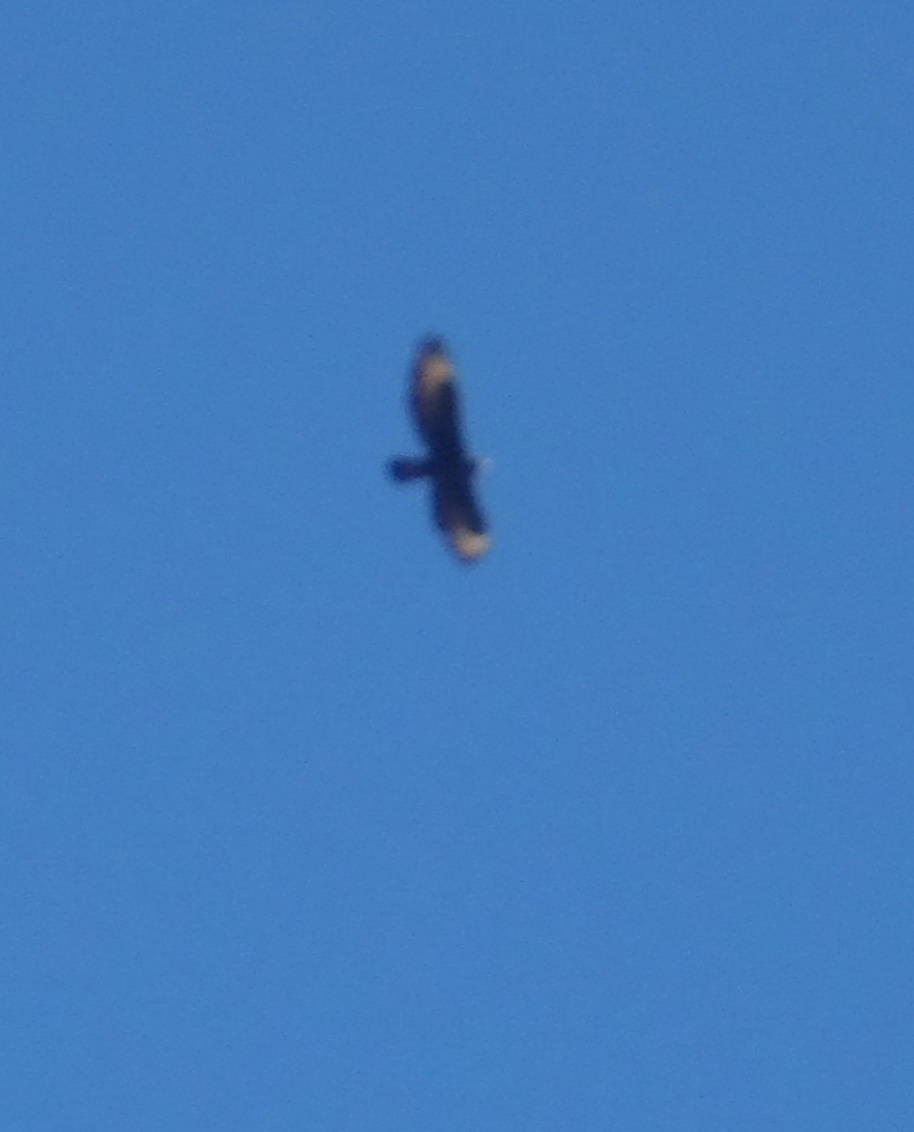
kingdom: Animalia
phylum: Chordata
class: Aves
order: Accipitriformes
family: Accipitridae
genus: Aquila
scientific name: Aquila verreauxii
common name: Verreaux's eagle
